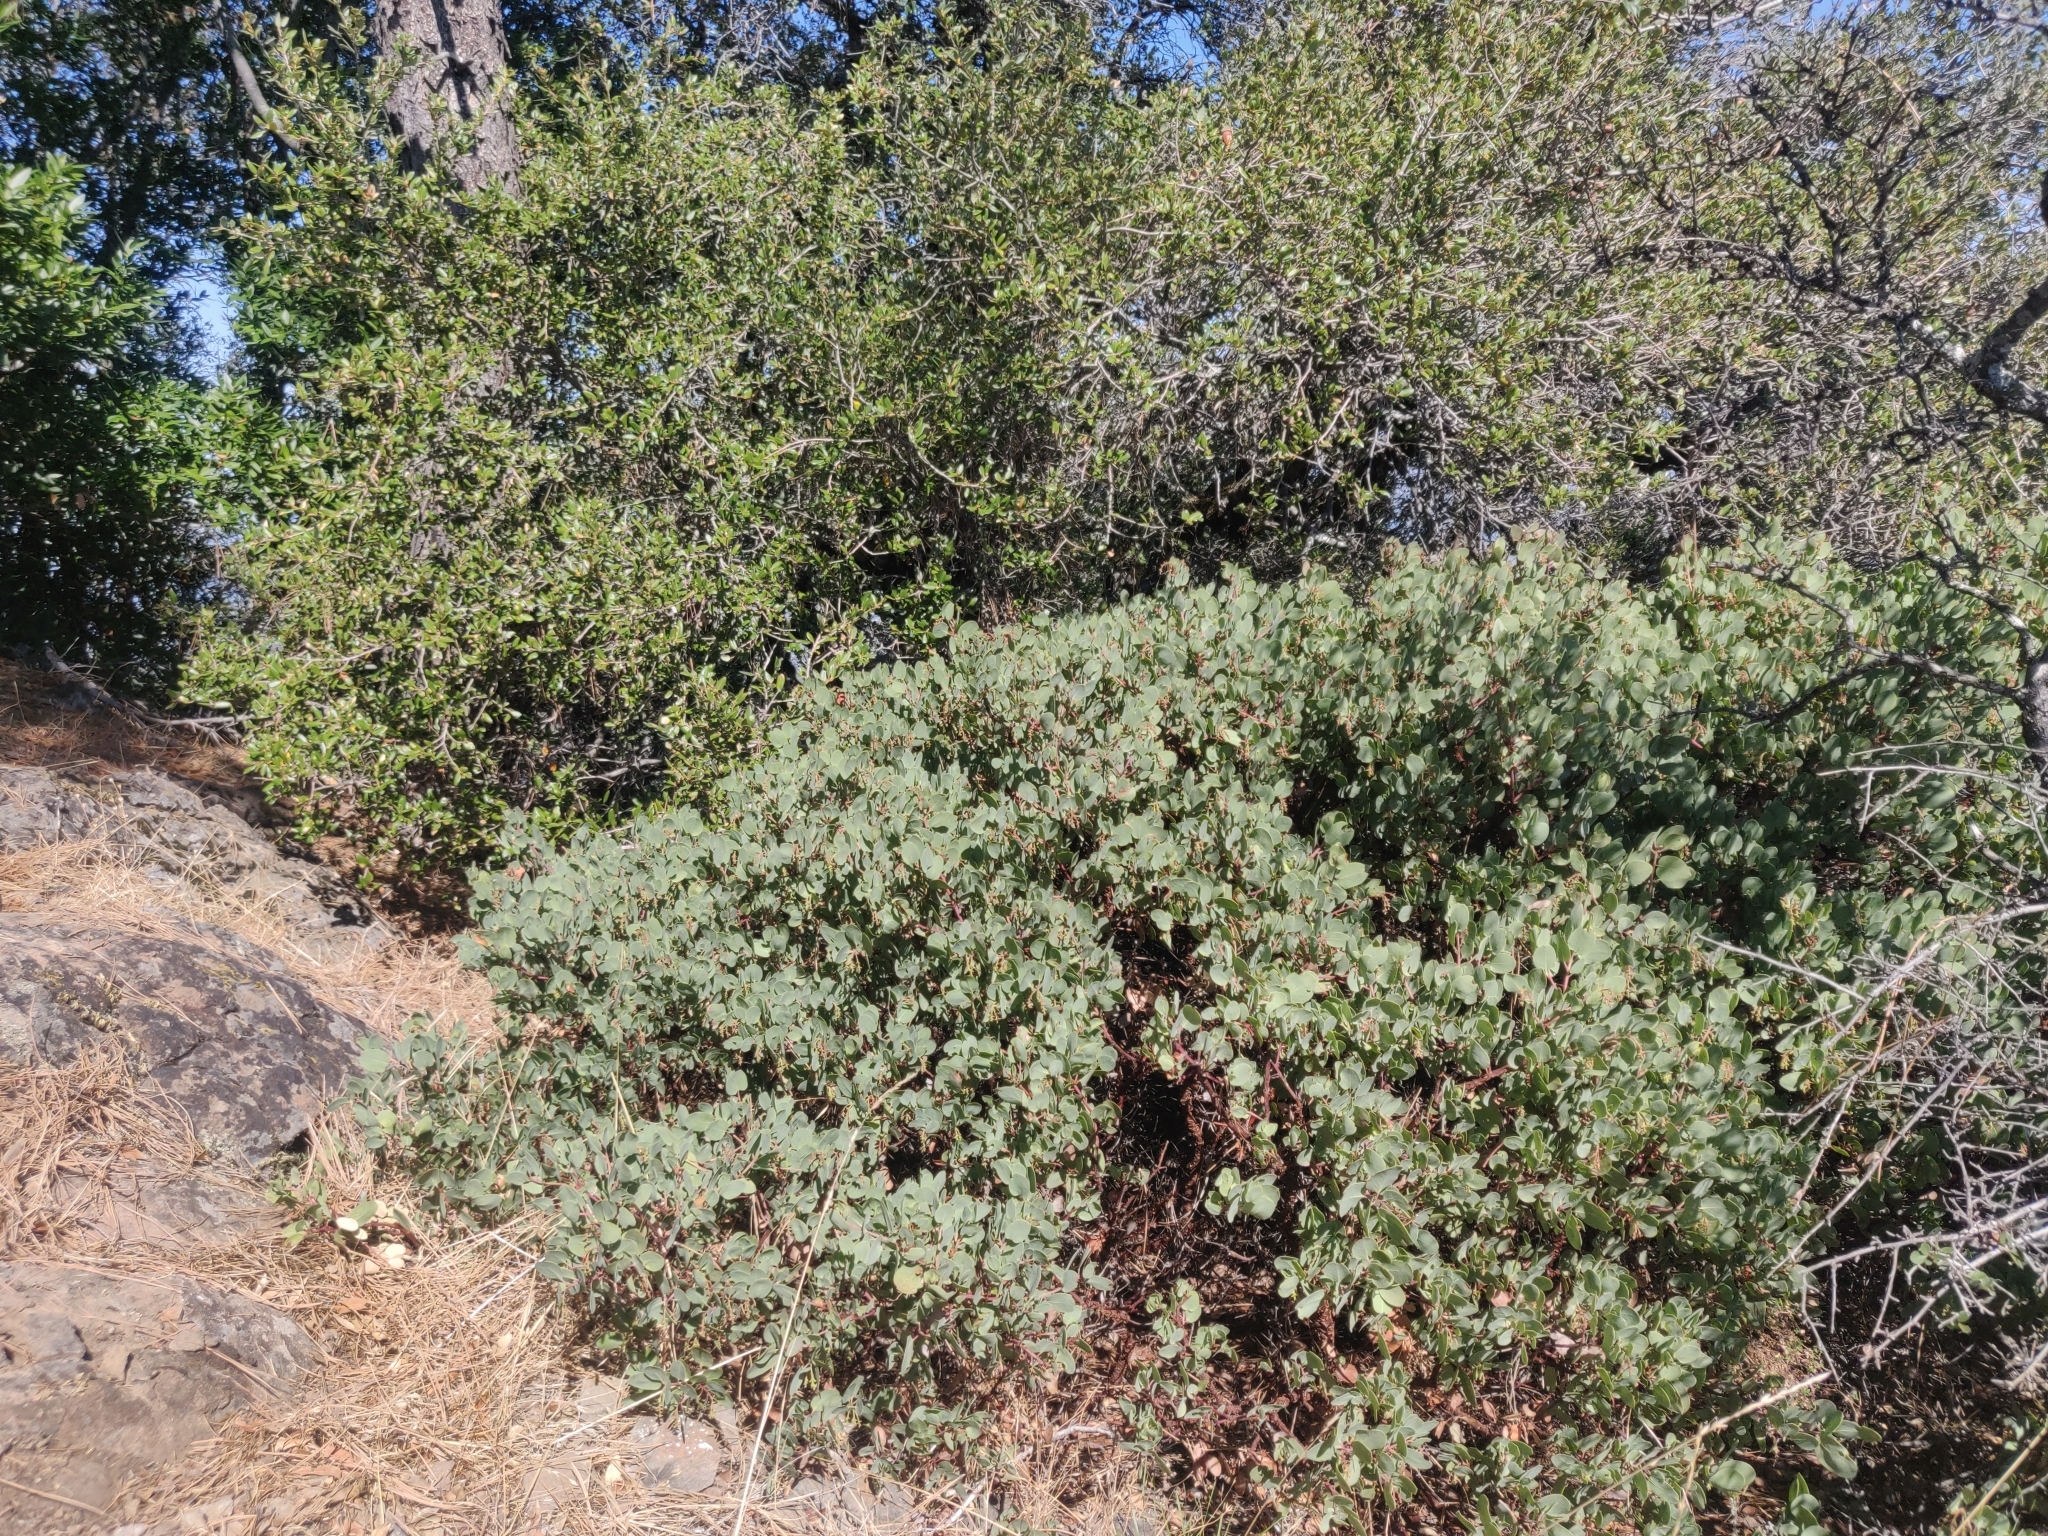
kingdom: Plantae
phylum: Tracheophyta
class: Magnoliopsida
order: Ericales
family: Ericaceae
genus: Arctostaphylos
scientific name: Arctostaphylos glauca
